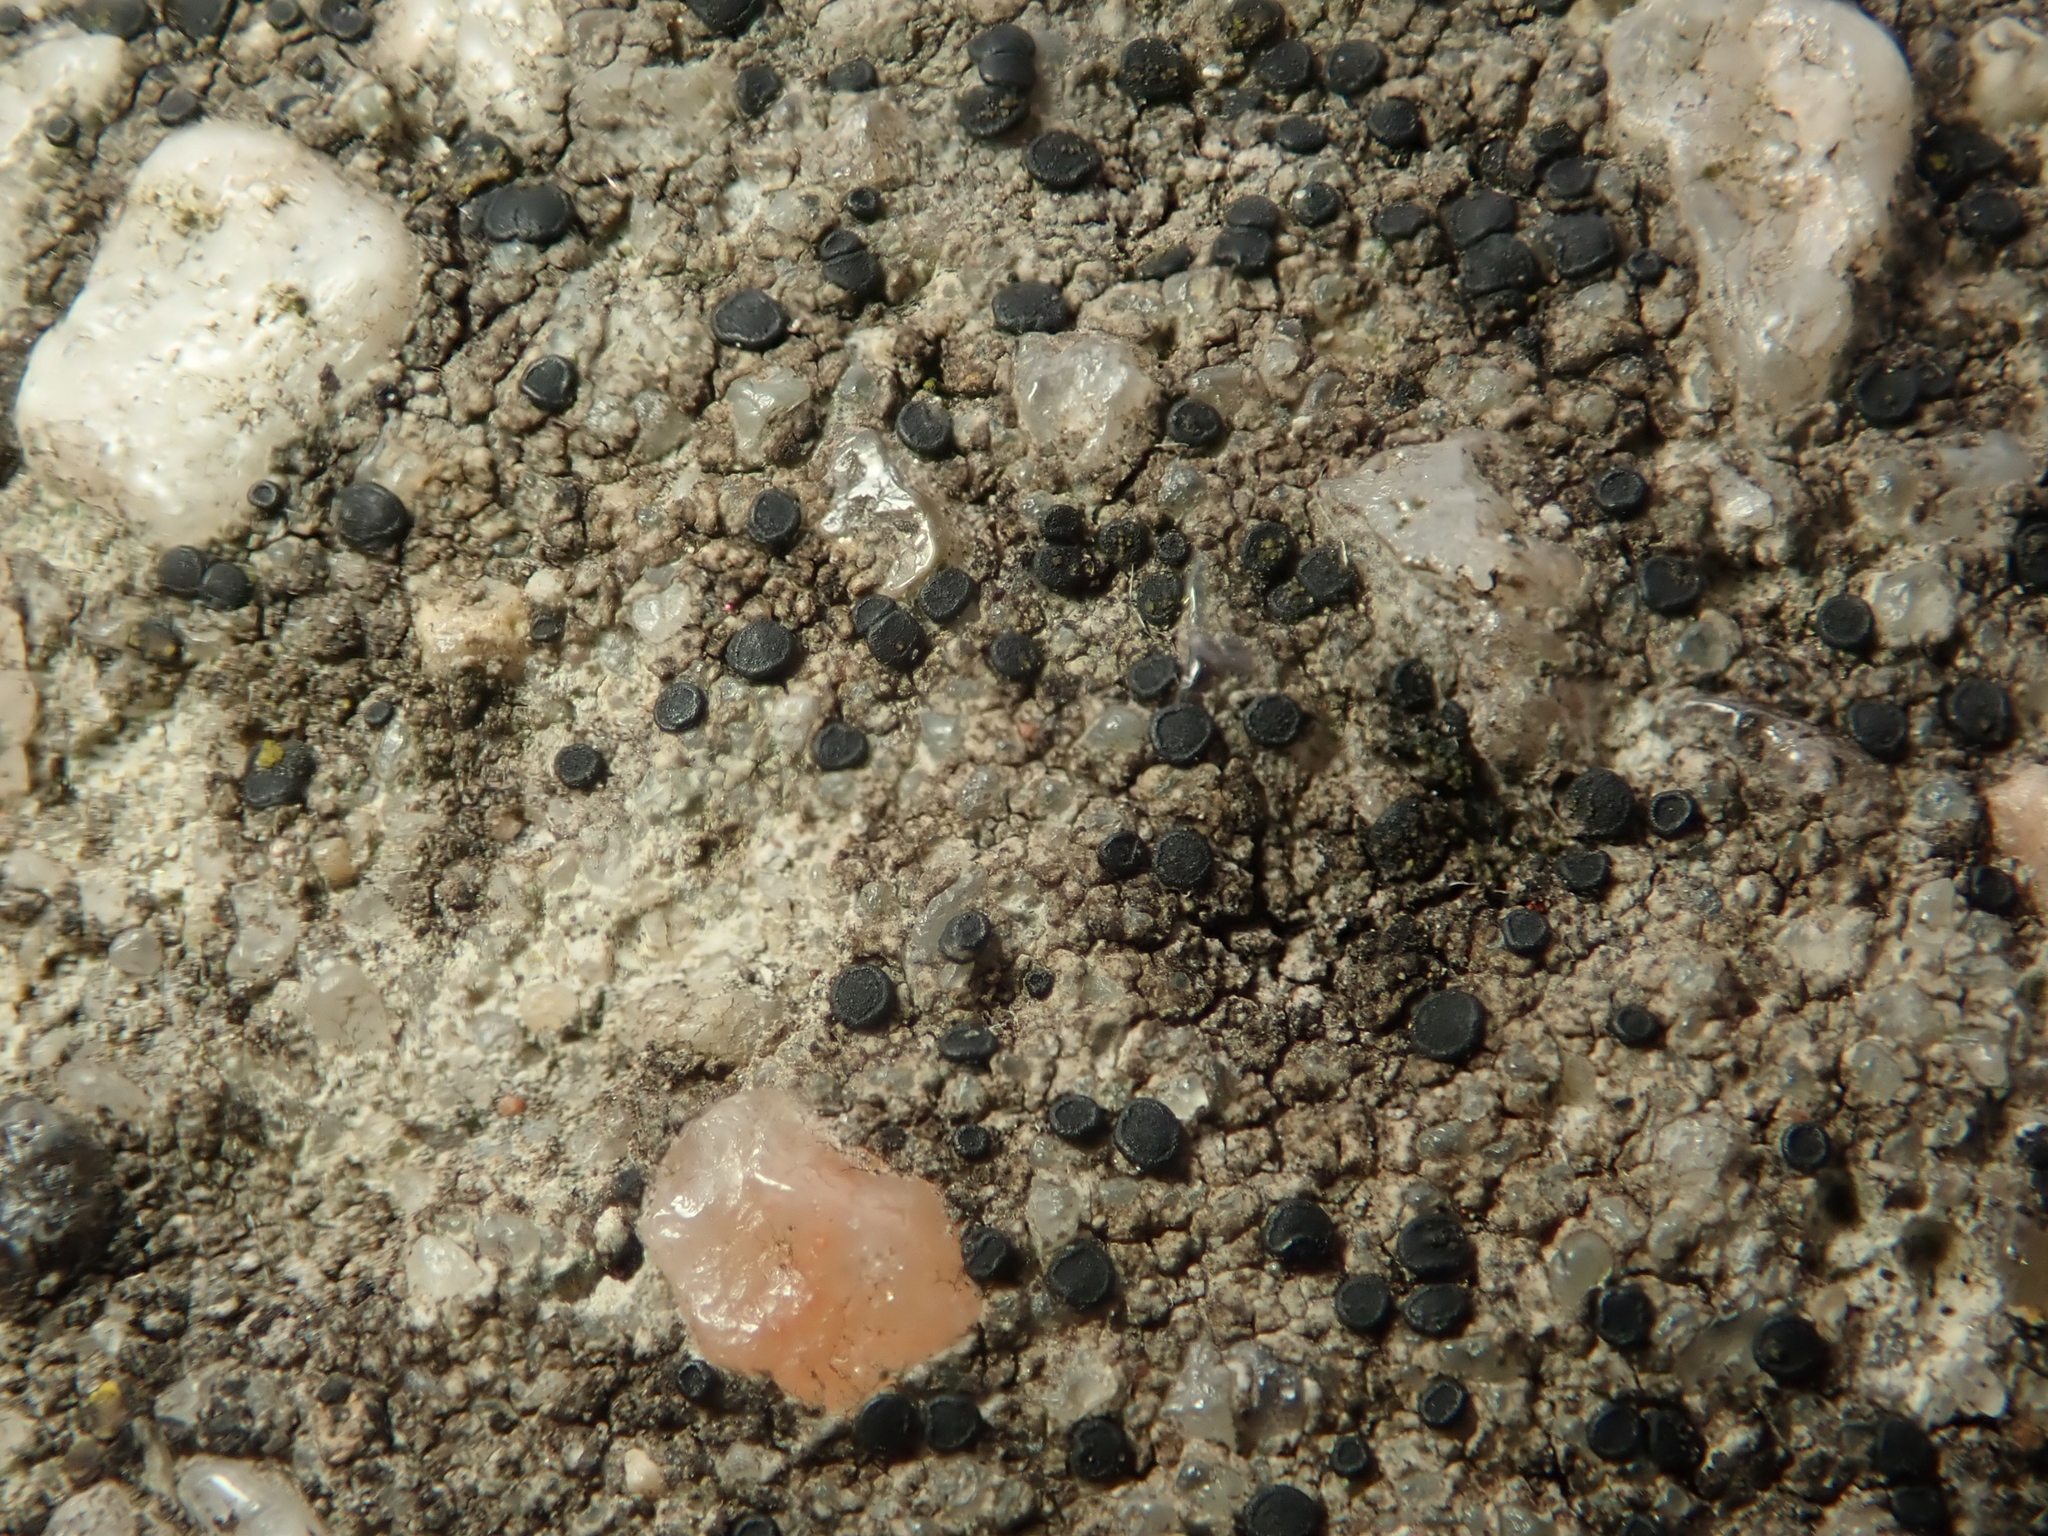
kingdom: Fungi
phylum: Ascomycota
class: Lecanoromycetes
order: Lecanorales
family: Lecanoraceae
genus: Lecidella
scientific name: Lecidella stigmatea
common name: Limestone disc lichen
